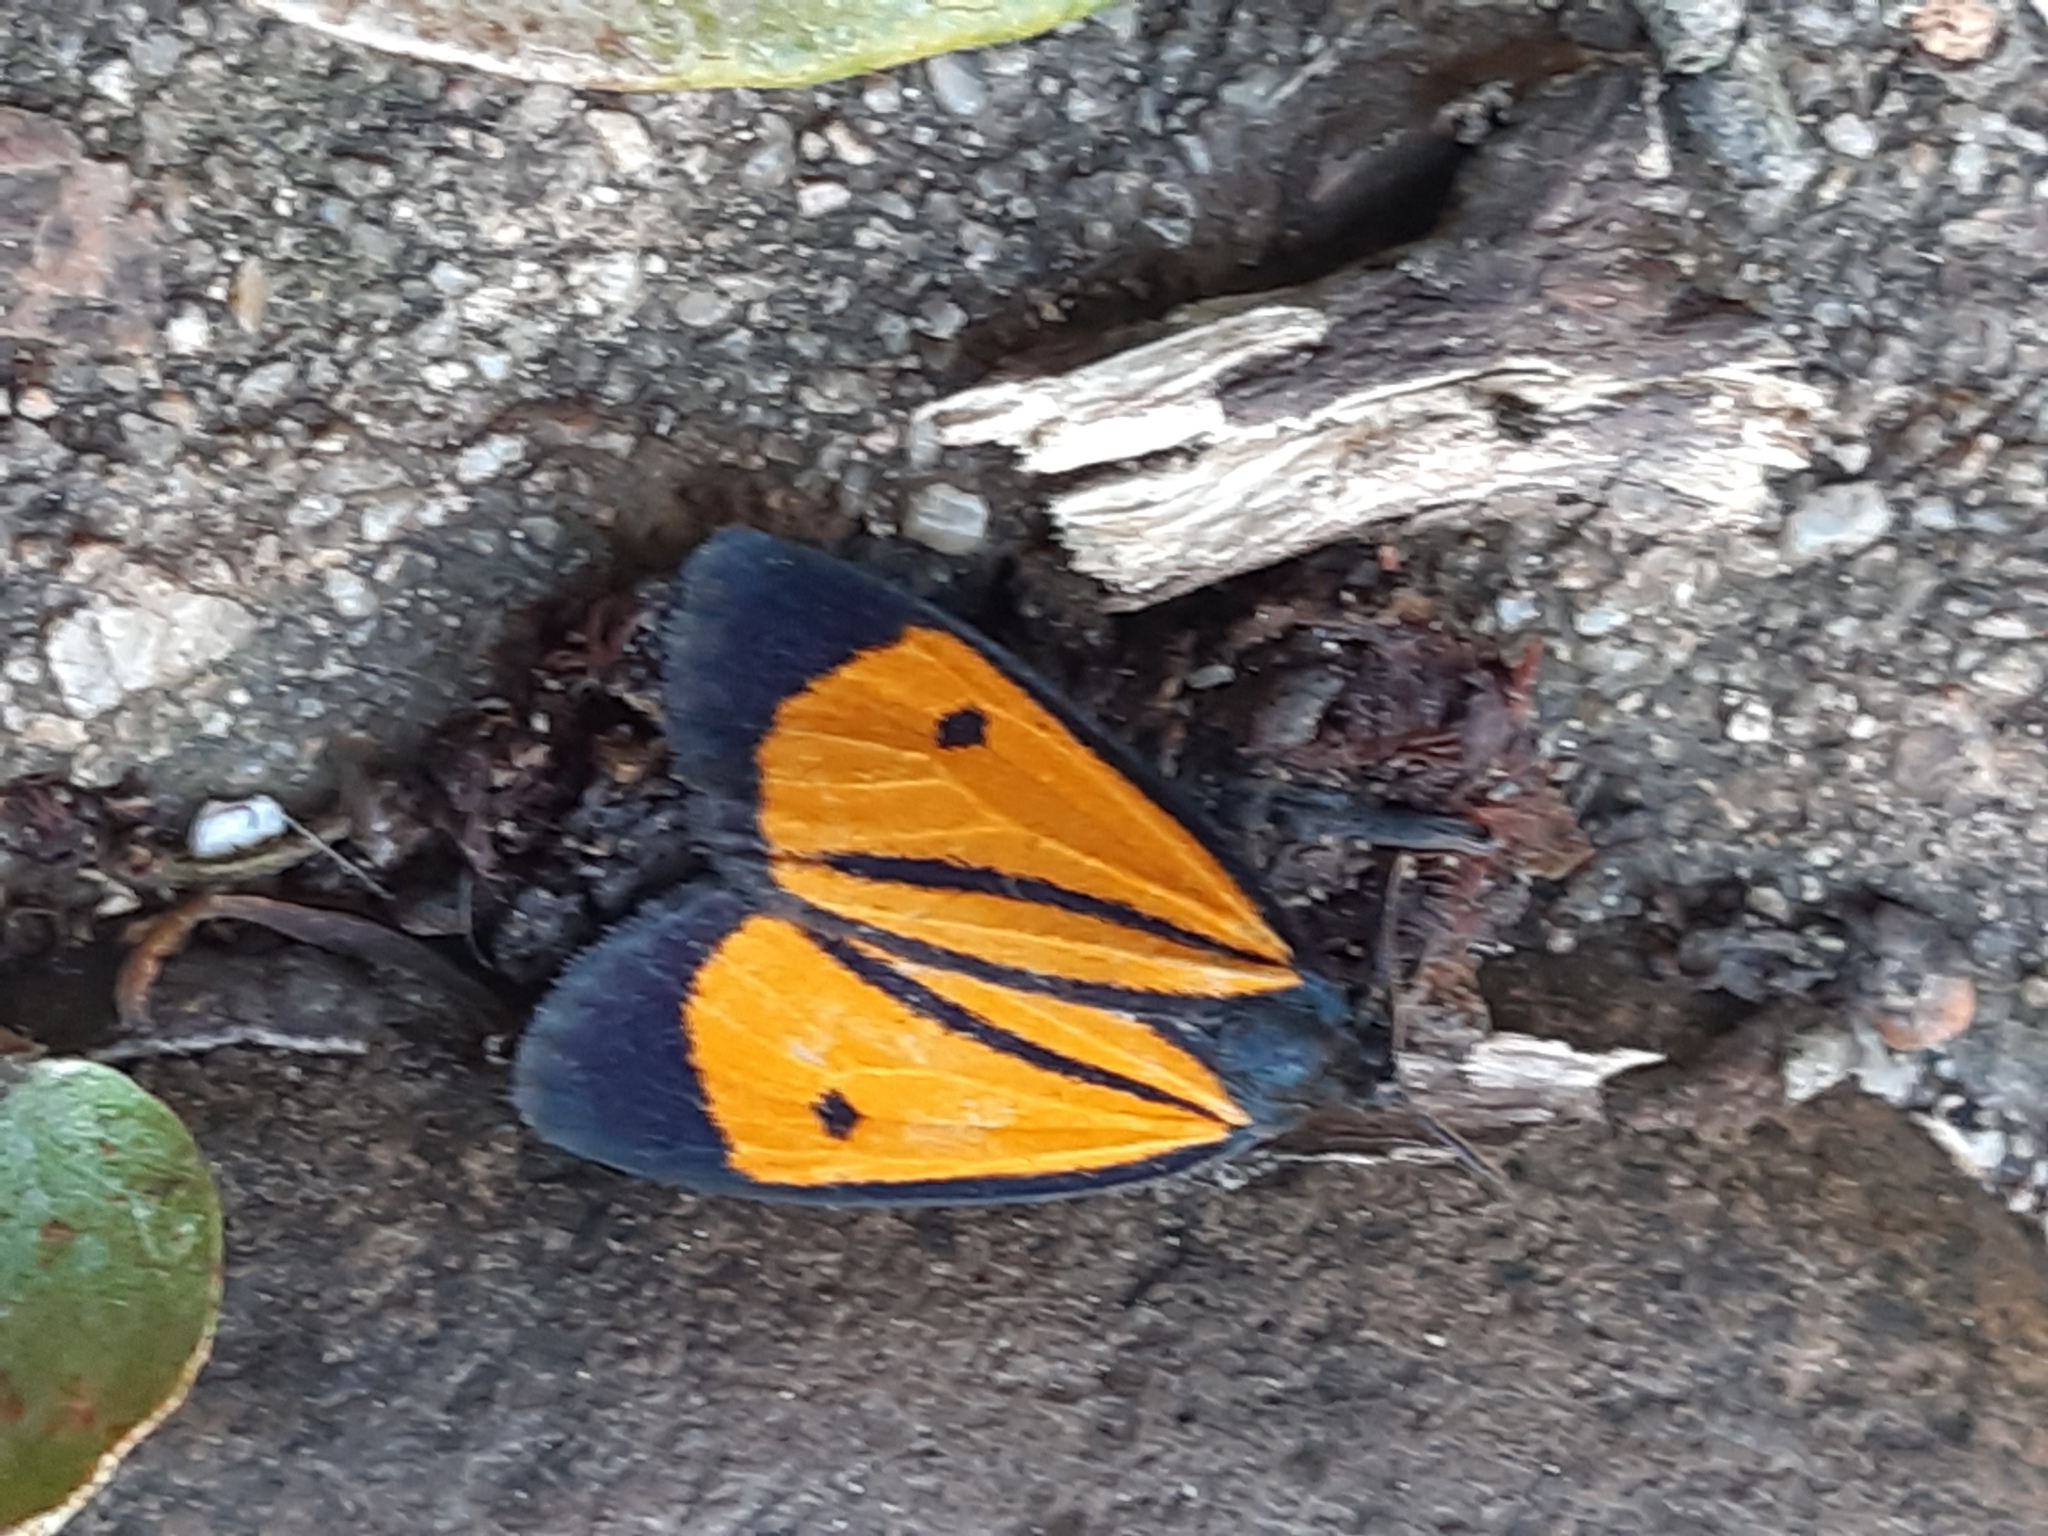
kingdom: Animalia
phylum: Arthropoda
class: Insecta
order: Lepidoptera
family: Erebidae
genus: Paratype
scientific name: Paratype univitta
